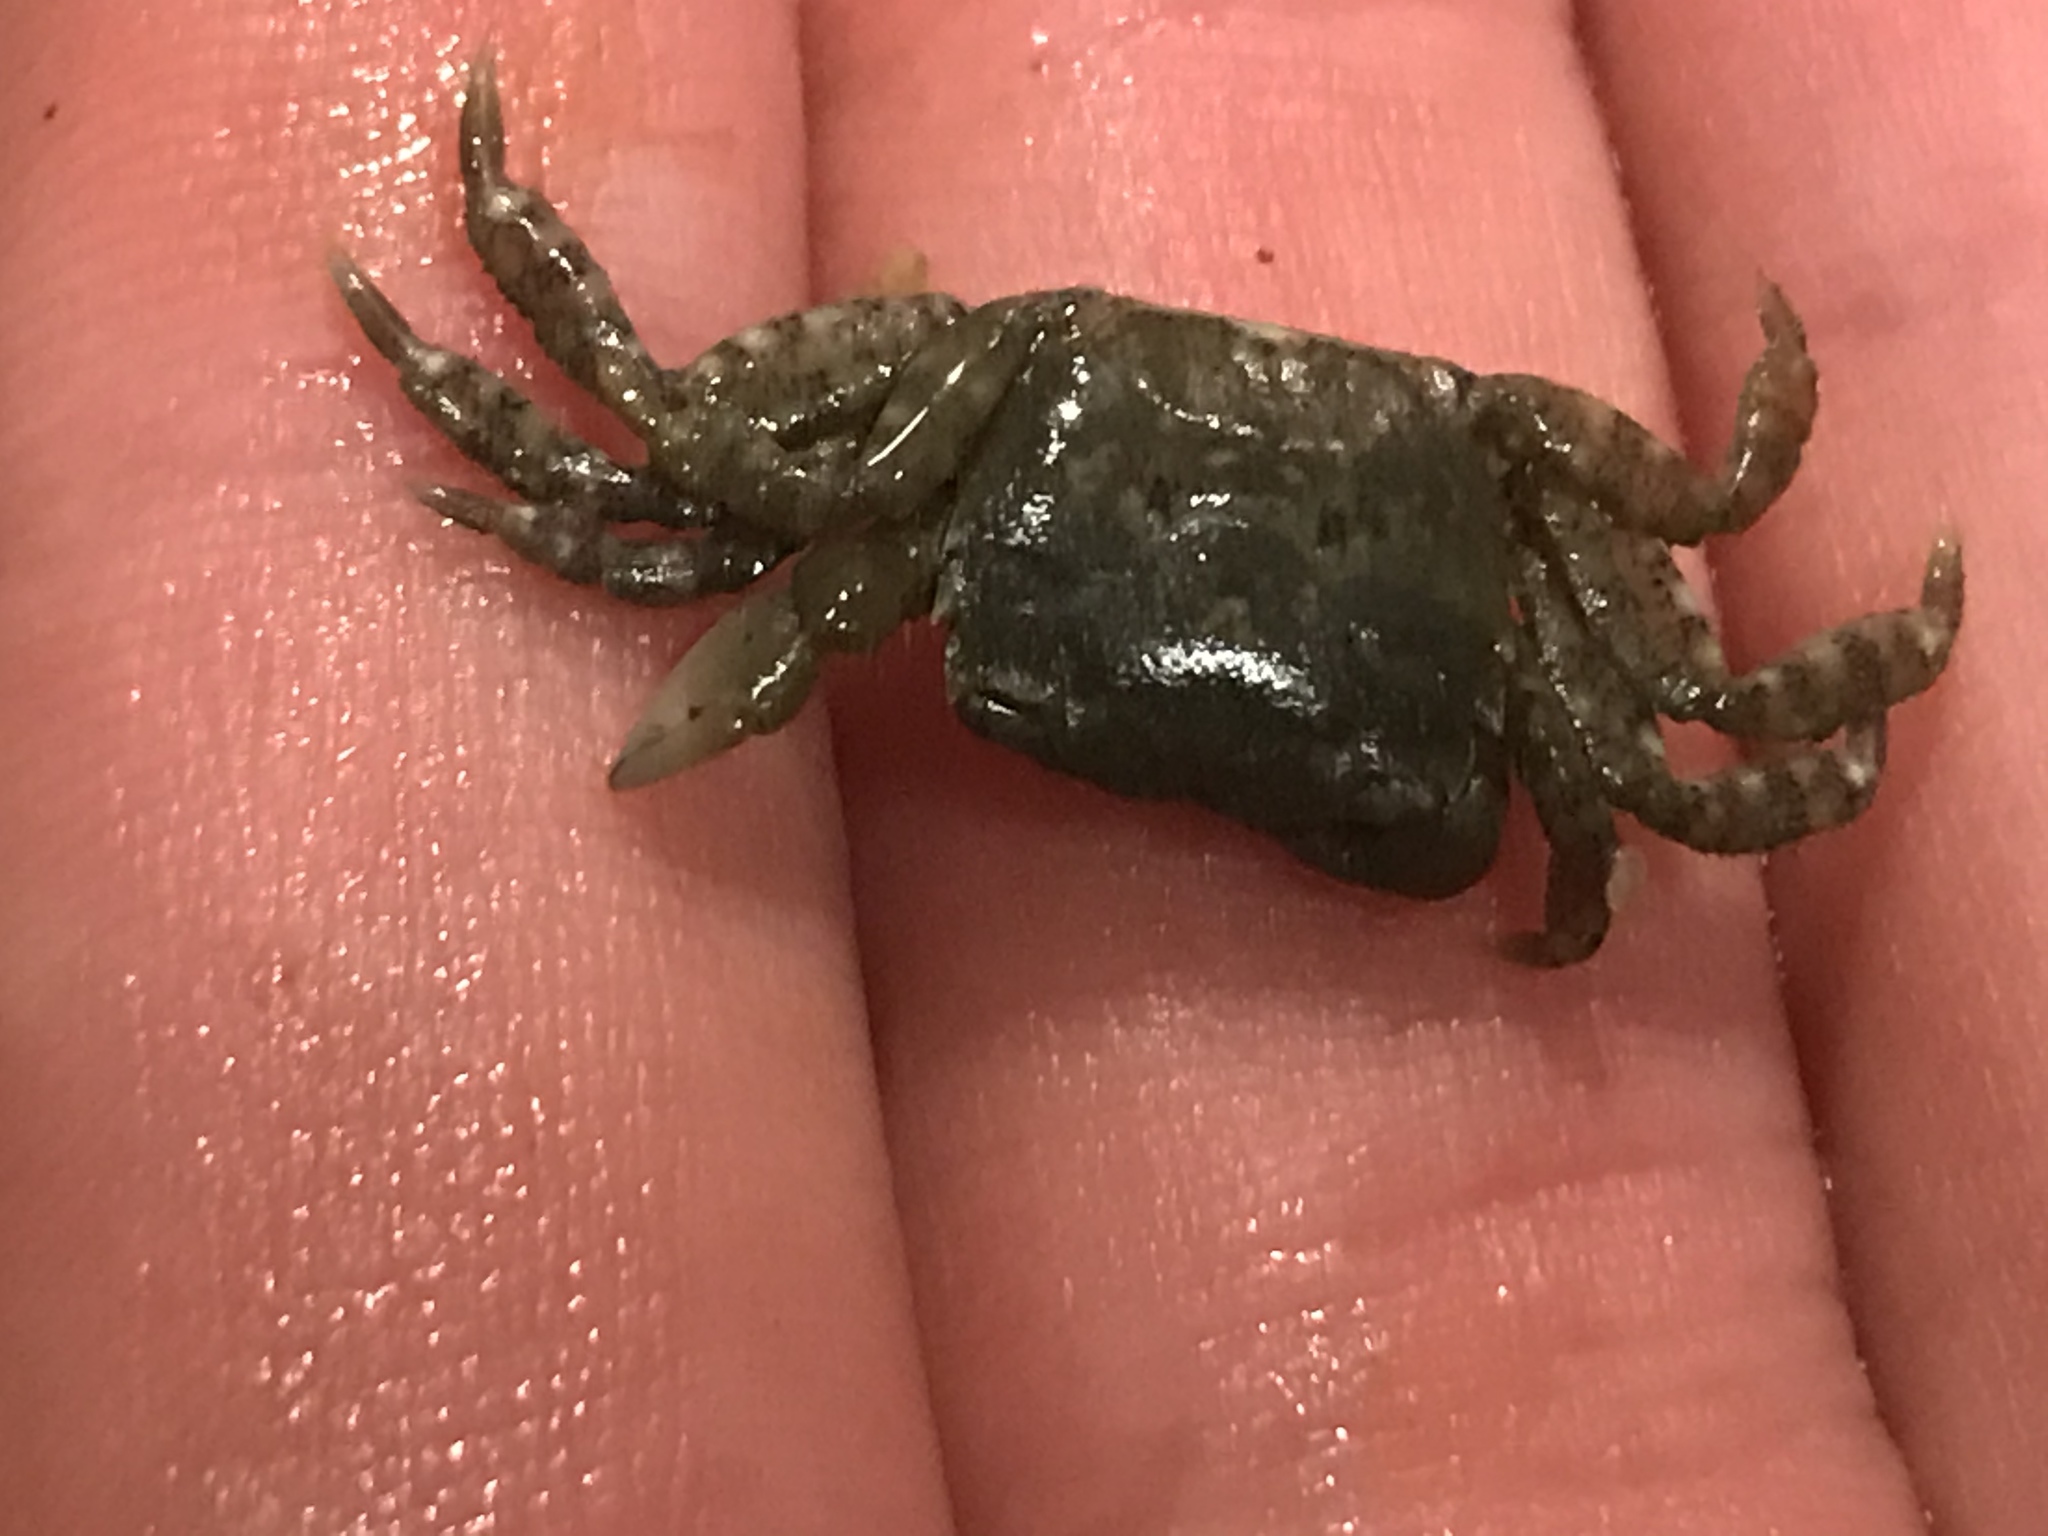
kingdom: Animalia
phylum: Arthropoda
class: Malacostraca
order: Decapoda
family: Varunidae
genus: Hemigrapsus
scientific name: Hemigrapsus oregonensis
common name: Yellow shore crab
